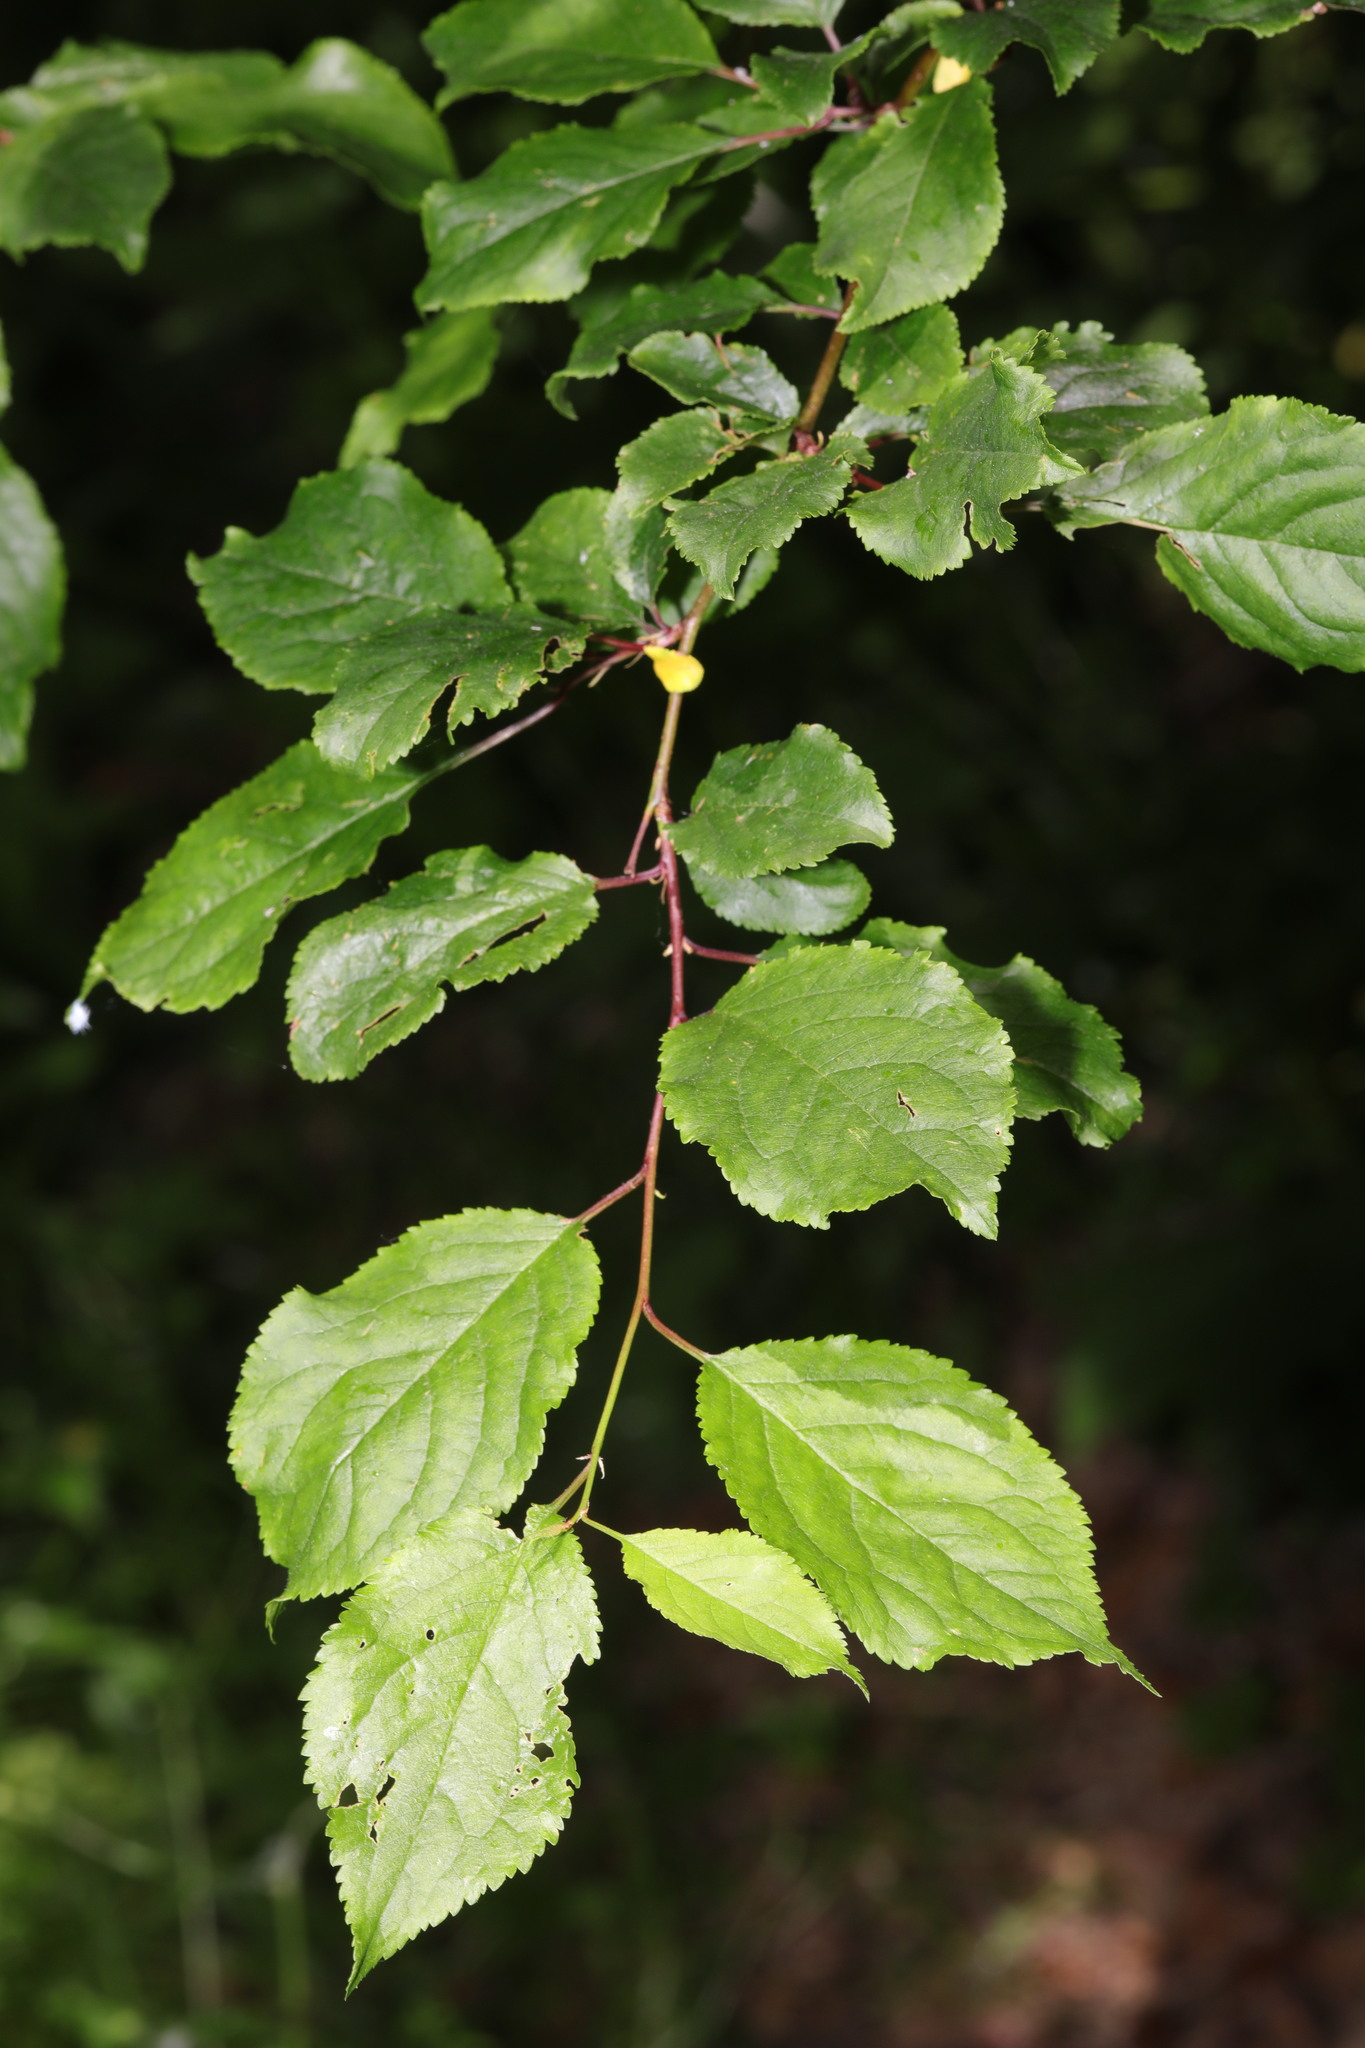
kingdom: Plantae
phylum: Tracheophyta
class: Magnoliopsida
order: Rosales
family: Rosaceae
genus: Prunus
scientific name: Prunus cerasifera
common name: Cherry plum
